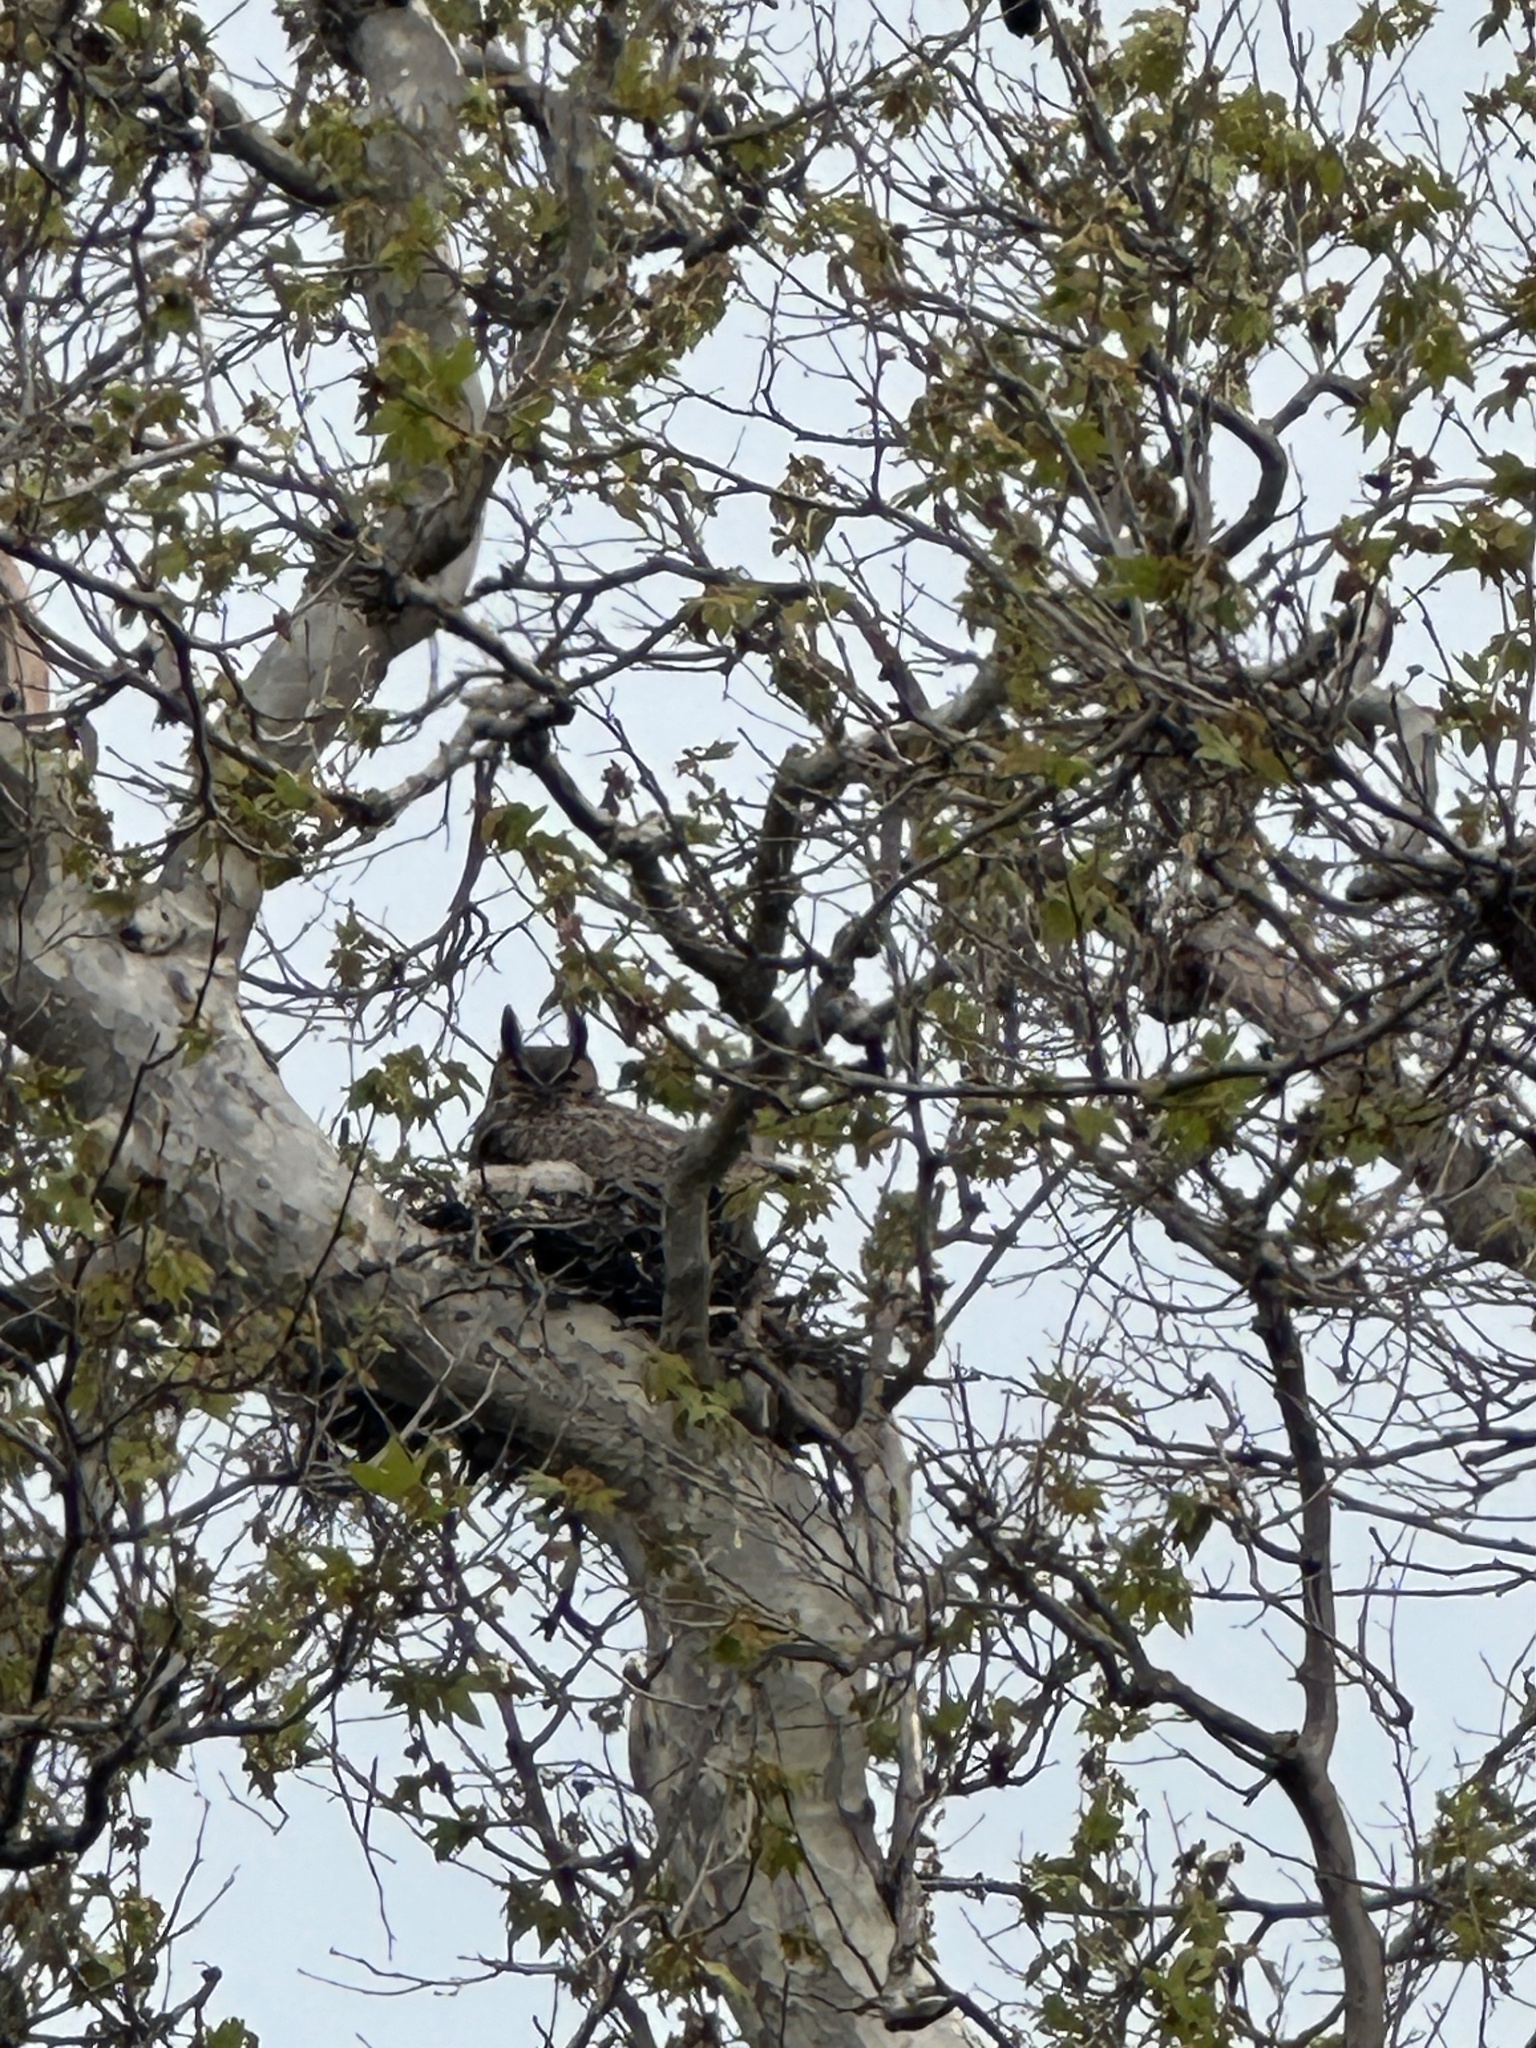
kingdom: Animalia
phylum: Chordata
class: Aves
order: Strigiformes
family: Strigidae
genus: Bubo
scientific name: Bubo virginianus
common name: Great horned owl
